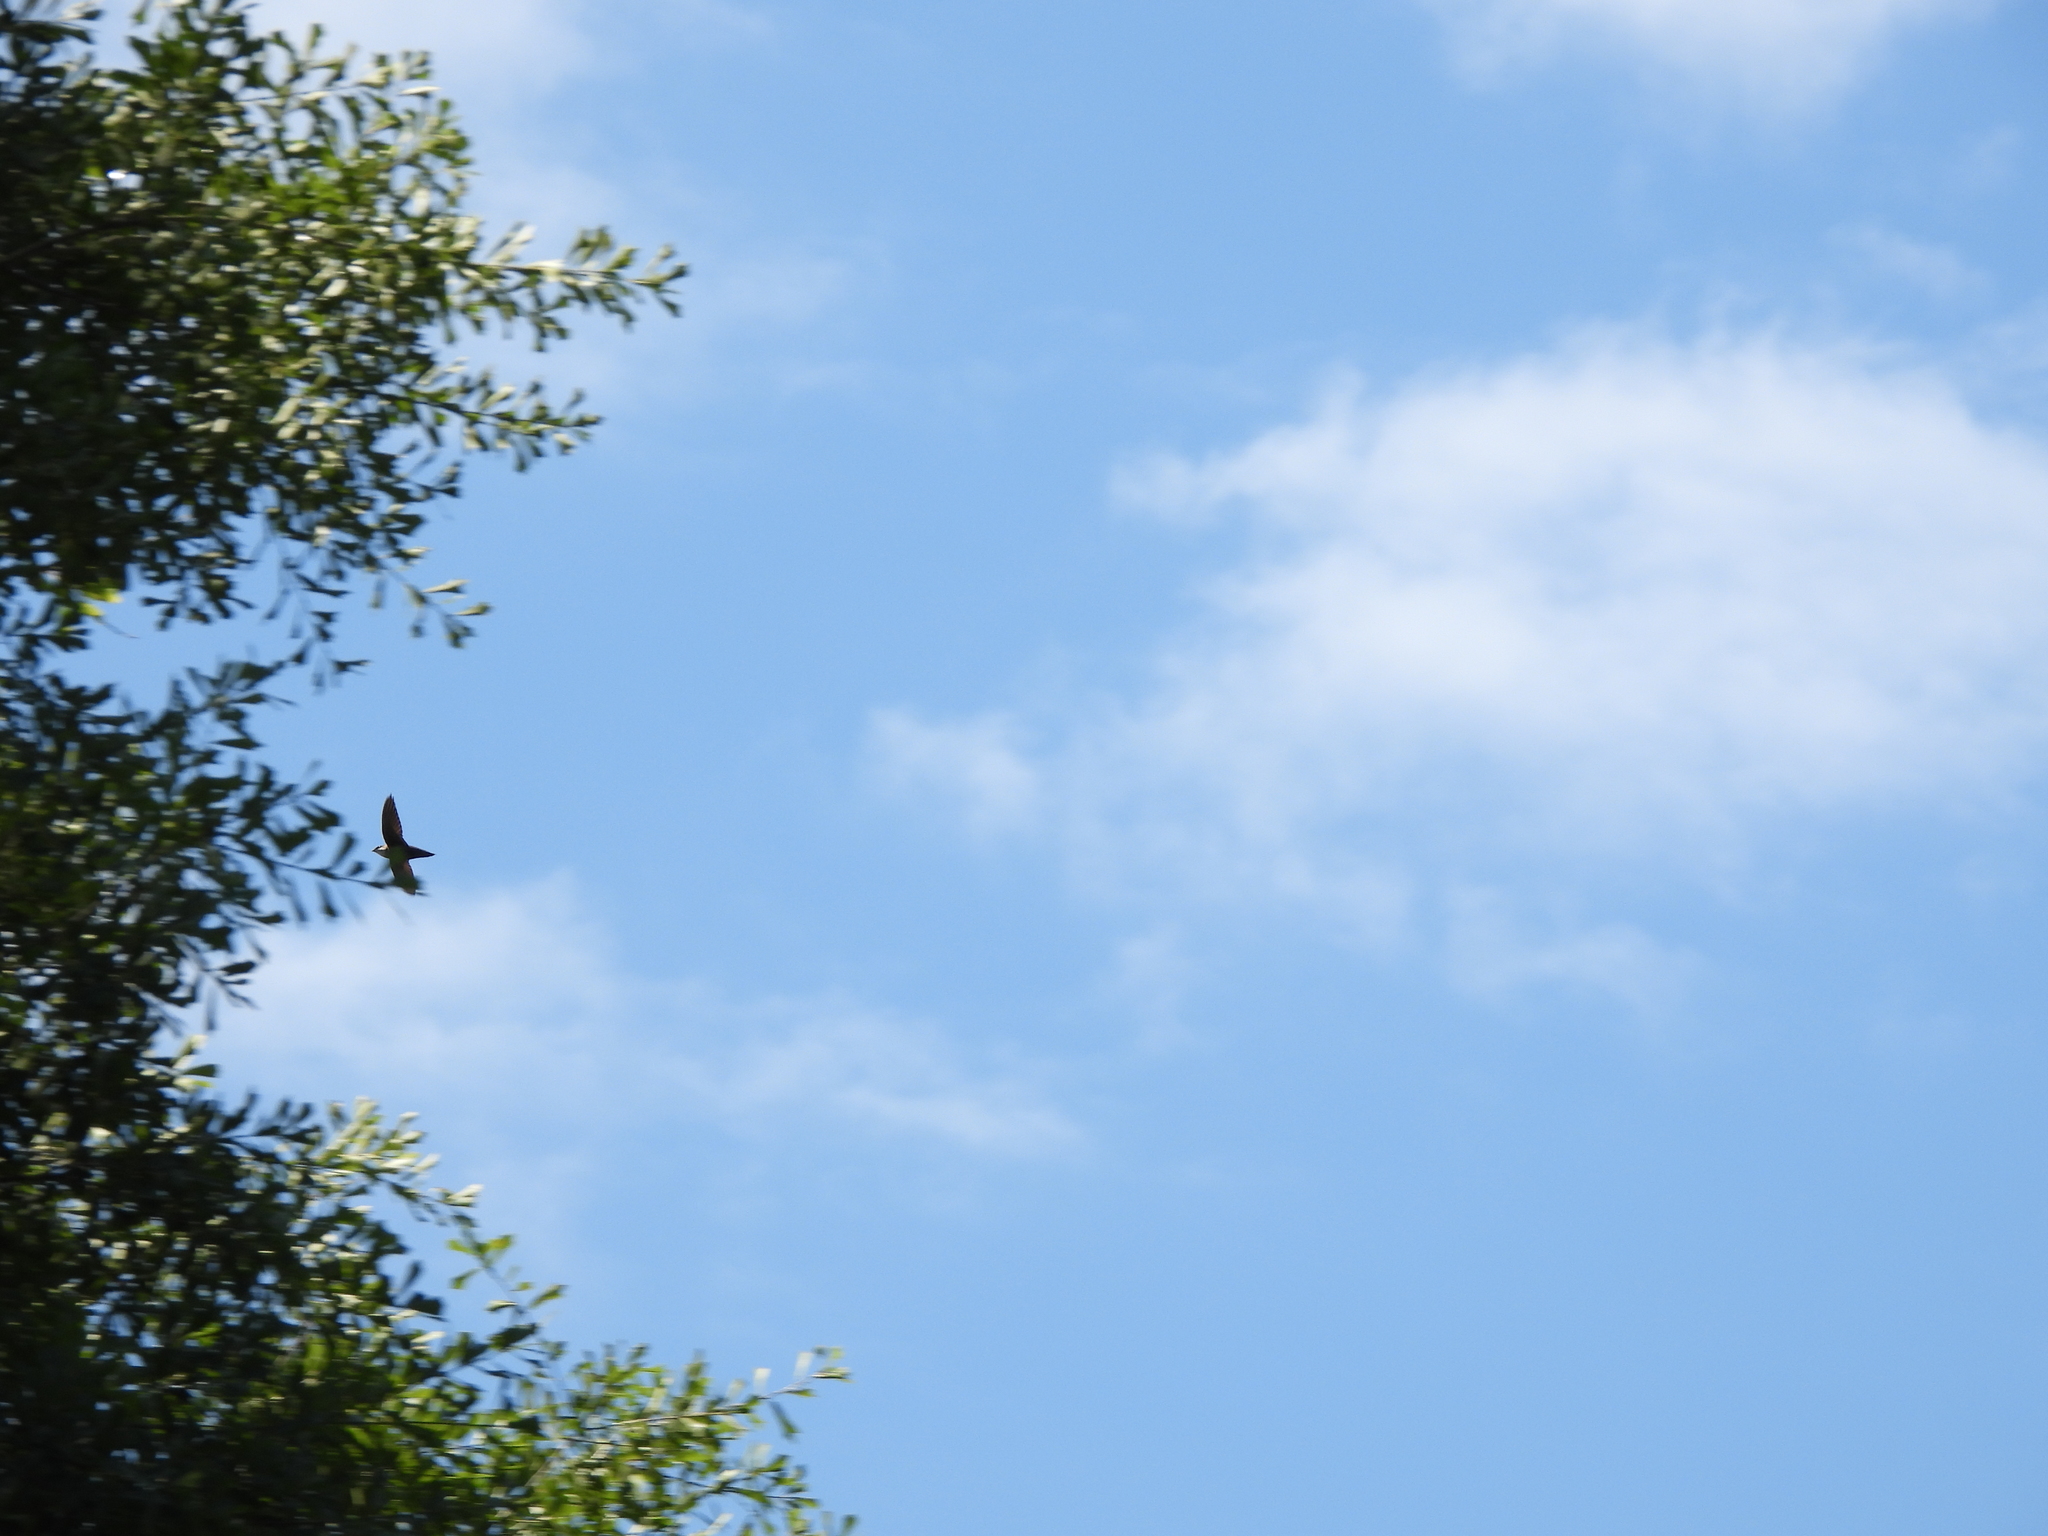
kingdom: Animalia
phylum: Chordata
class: Aves
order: Apodiformes
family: Apodidae
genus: Chaetura
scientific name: Chaetura pelagica
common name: Chimney swift
